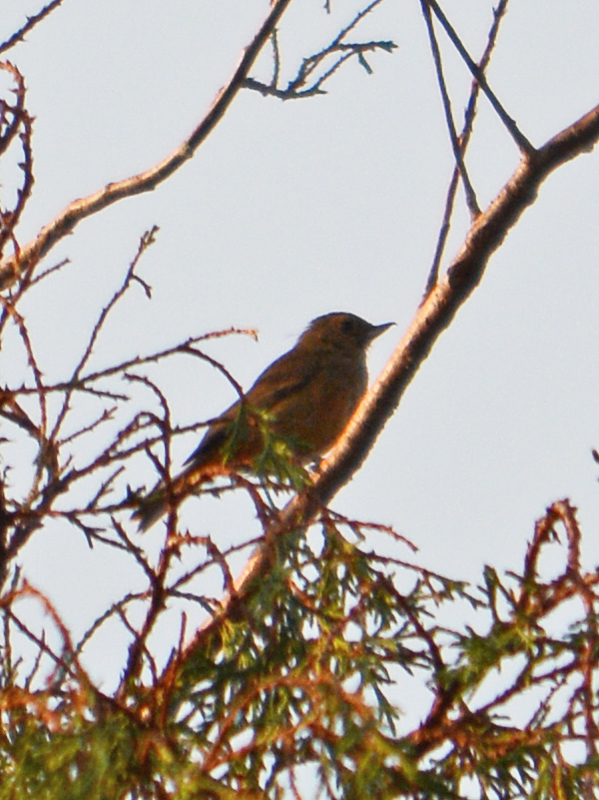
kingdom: Animalia
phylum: Chordata
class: Aves
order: Passeriformes
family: Thraupidae
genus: Diglossa
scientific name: Diglossa baritula
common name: Cinnamon-bellied flowerpiercer
